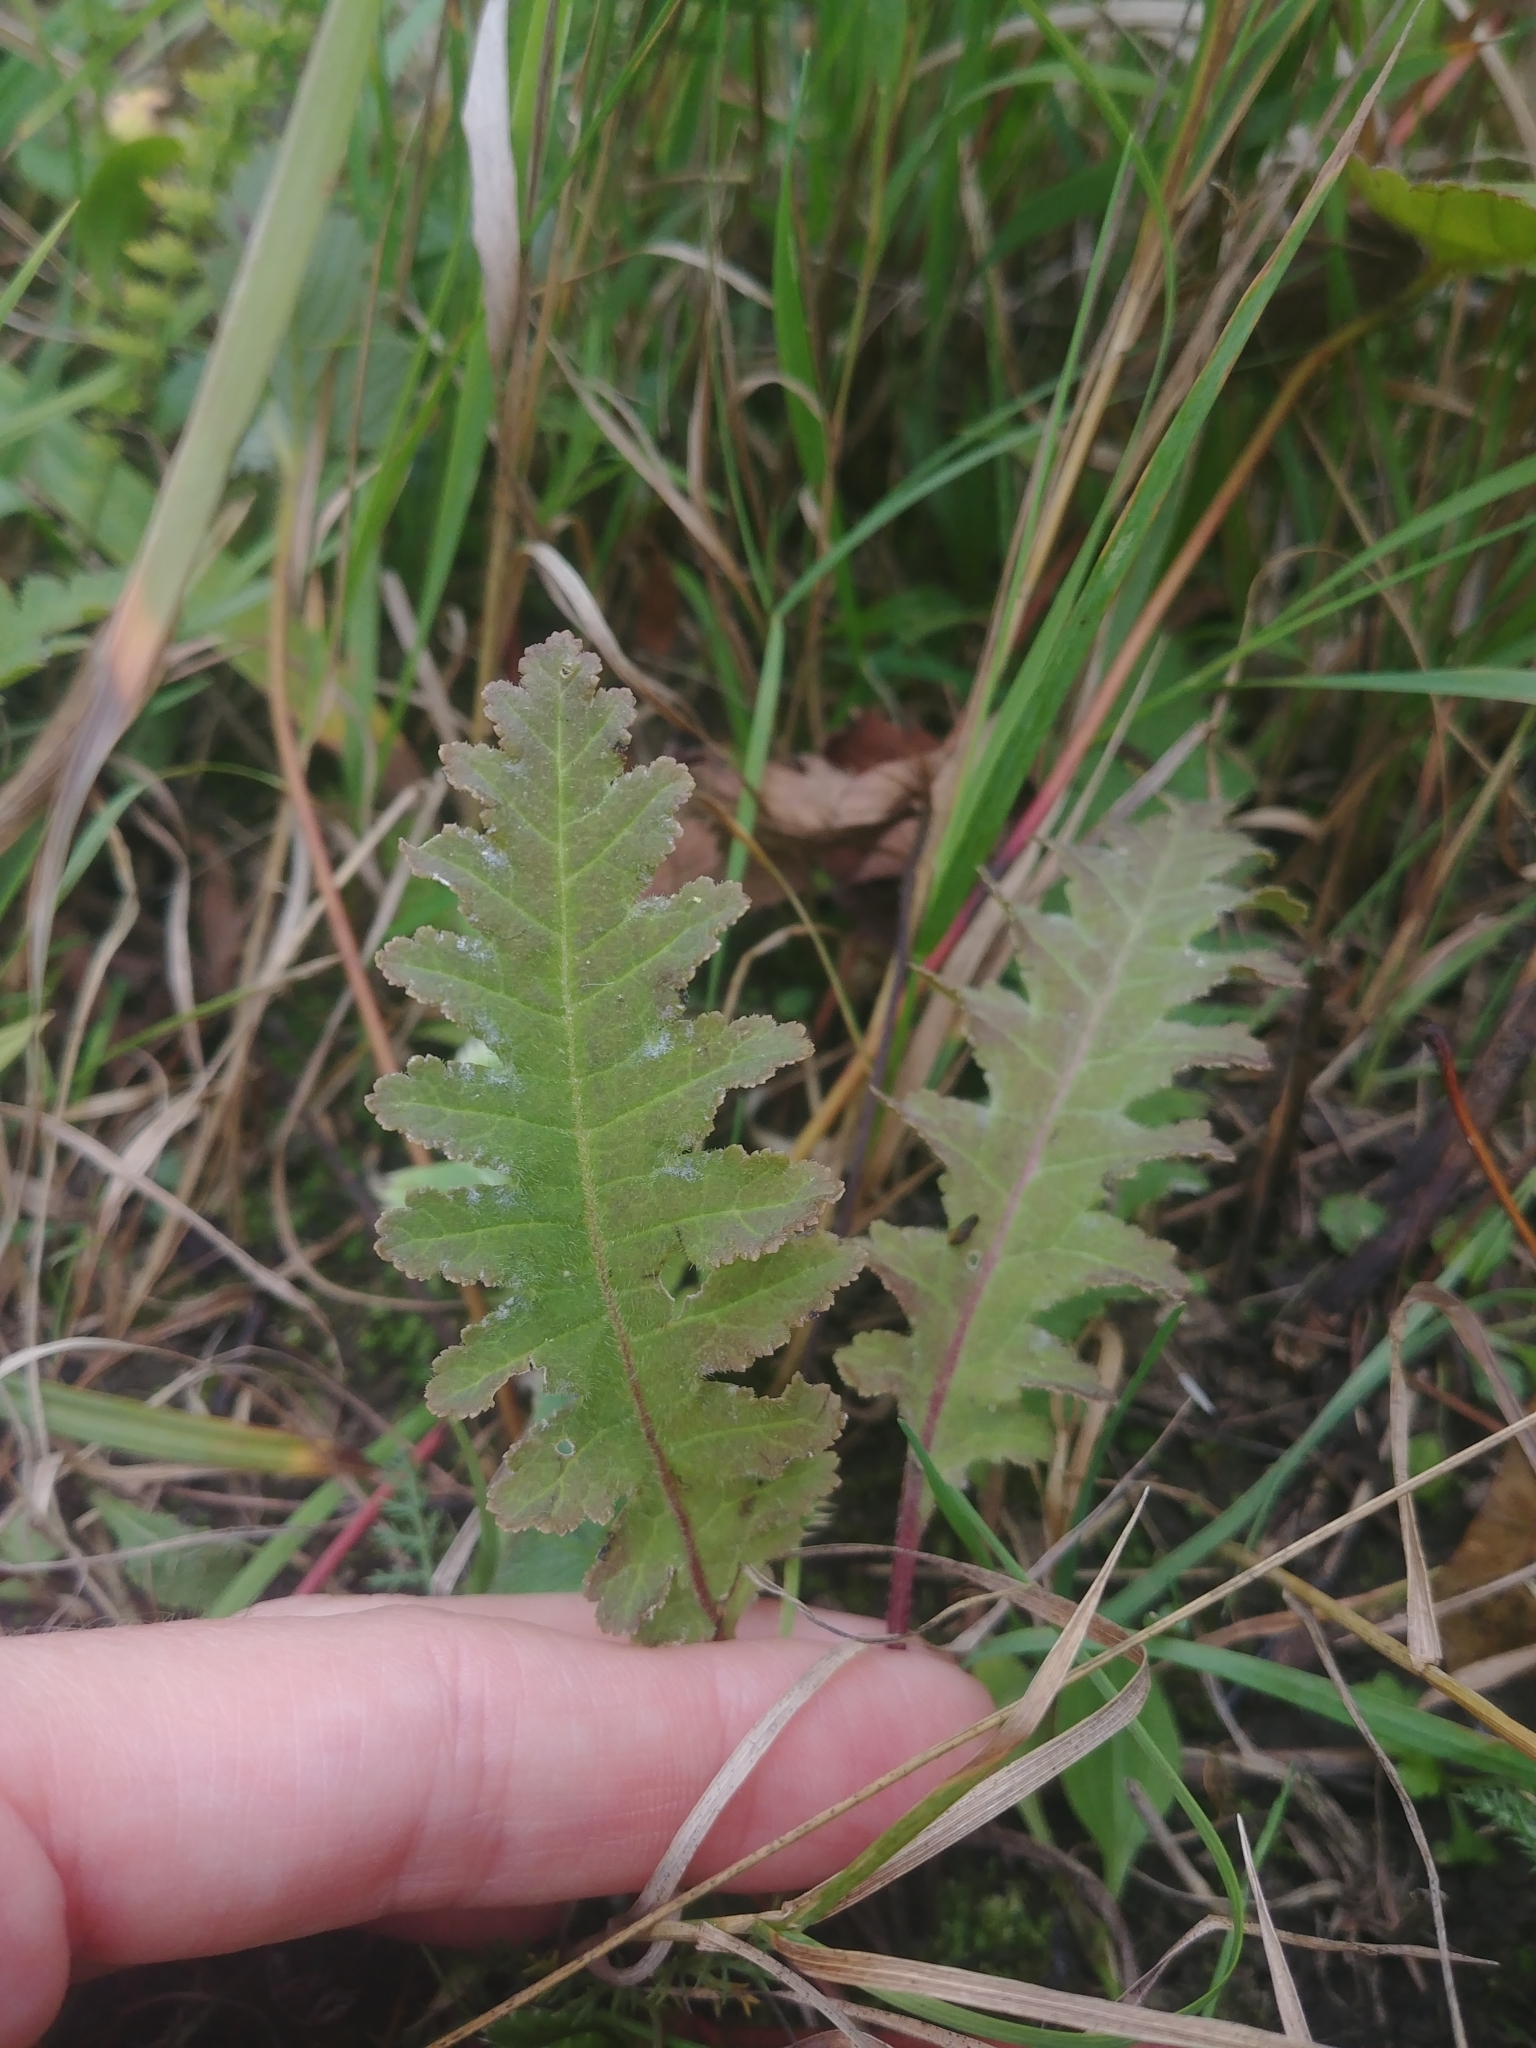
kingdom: Plantae
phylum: Tracheophyta
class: Magnoliopsida
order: Lamiales
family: Orobanchaceae
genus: Pedicularis
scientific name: Pedicularis canadensis
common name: Early lousewort
